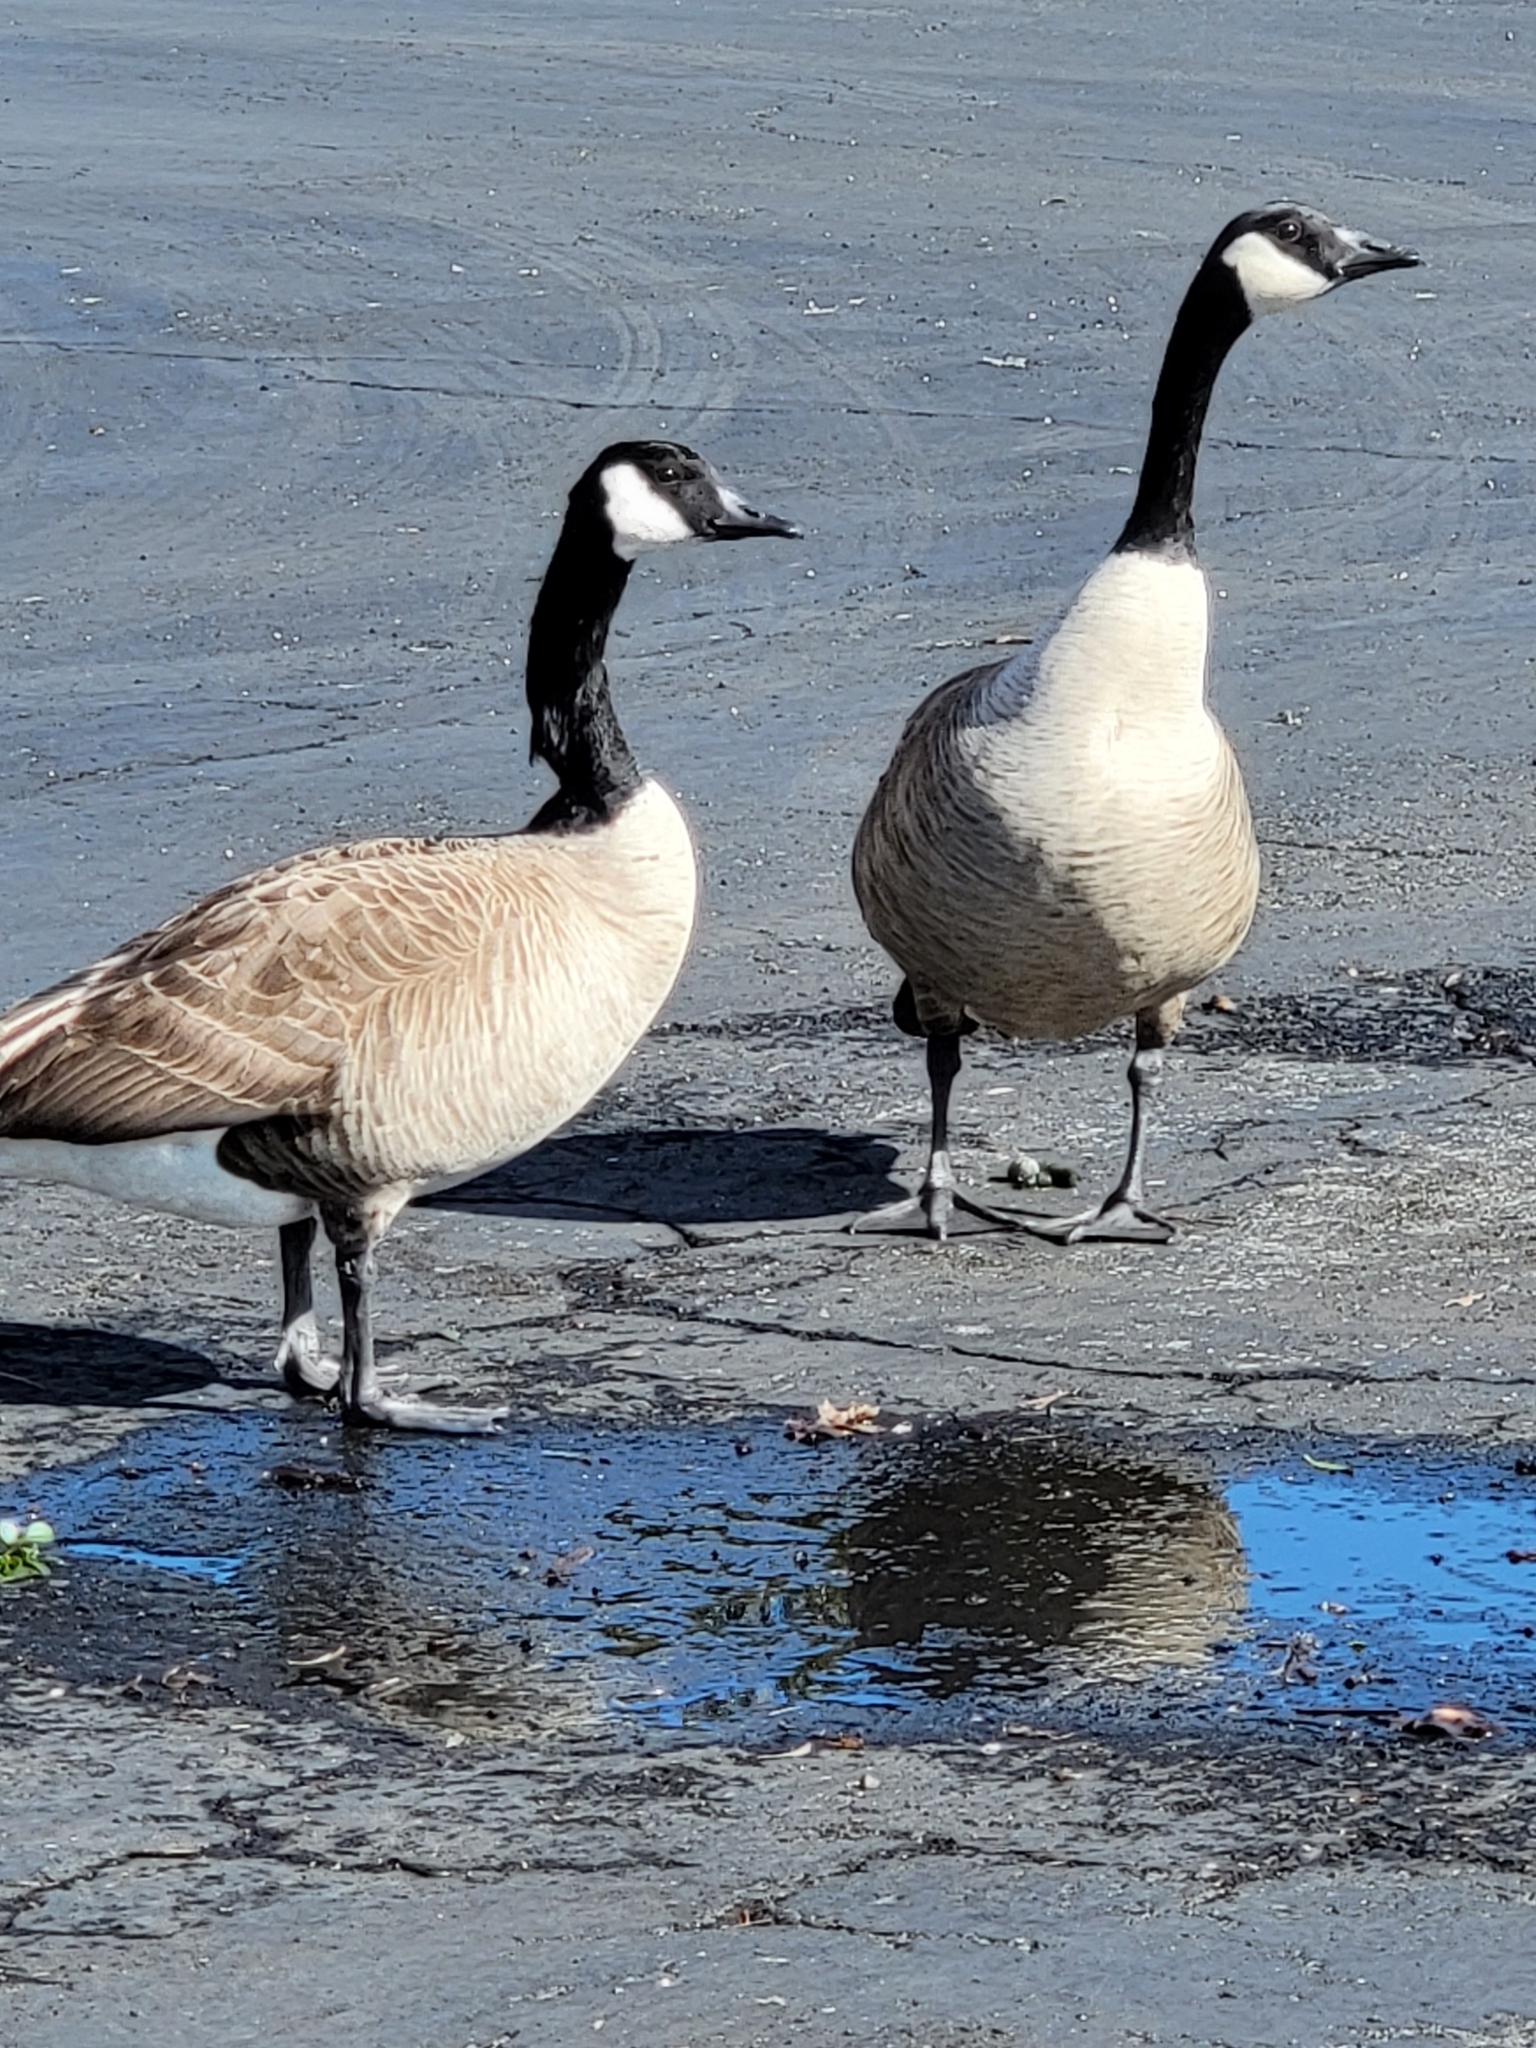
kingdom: Animalia
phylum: Chordata
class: Aves
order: Anseriformes
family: Anatidae
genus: Branta
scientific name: Branta canadensis
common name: Canada goose
